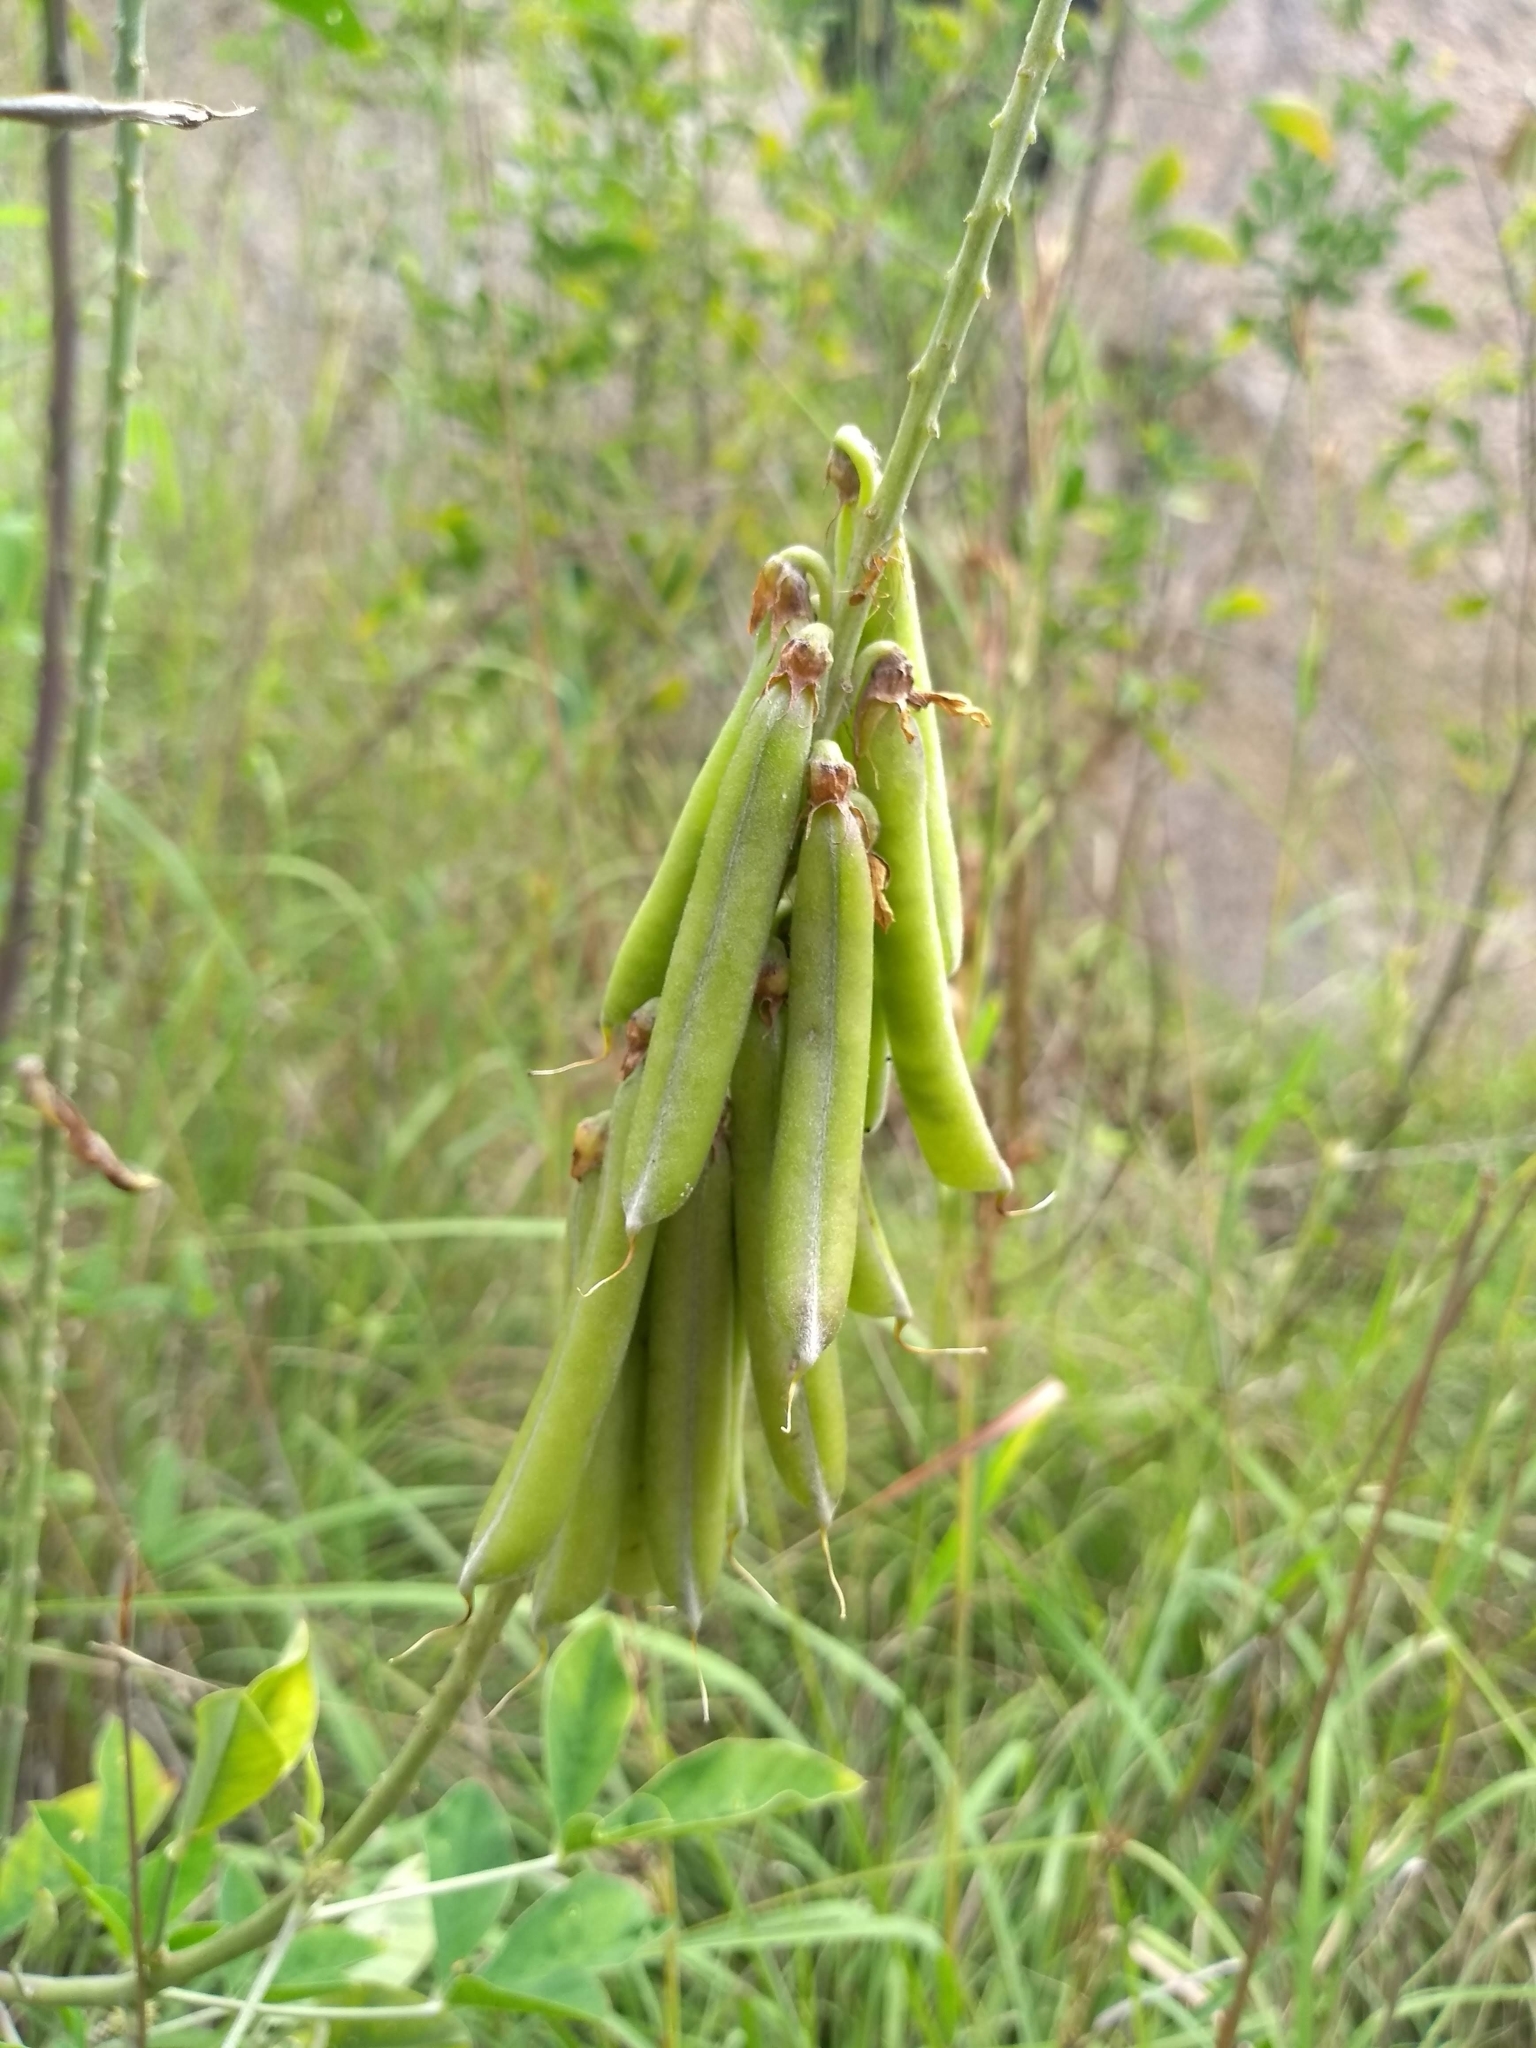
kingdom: Plantae
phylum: Tracheophyta
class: Magnoliopsida
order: Fabales
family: Fabaceae
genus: Crotalaria
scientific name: Crotalaria pallida
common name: Smooth rattlebox
